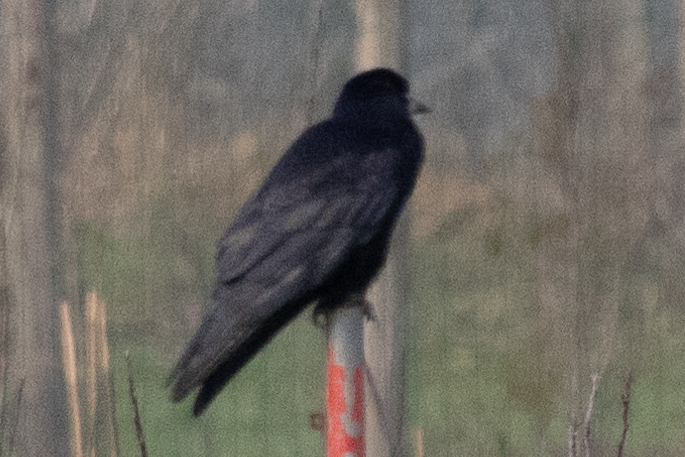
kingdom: Animalia
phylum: Chordata
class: Aves
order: Passeriformes
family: Corvidae
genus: Corvus
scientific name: Corvus frugilegus
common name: Rook
